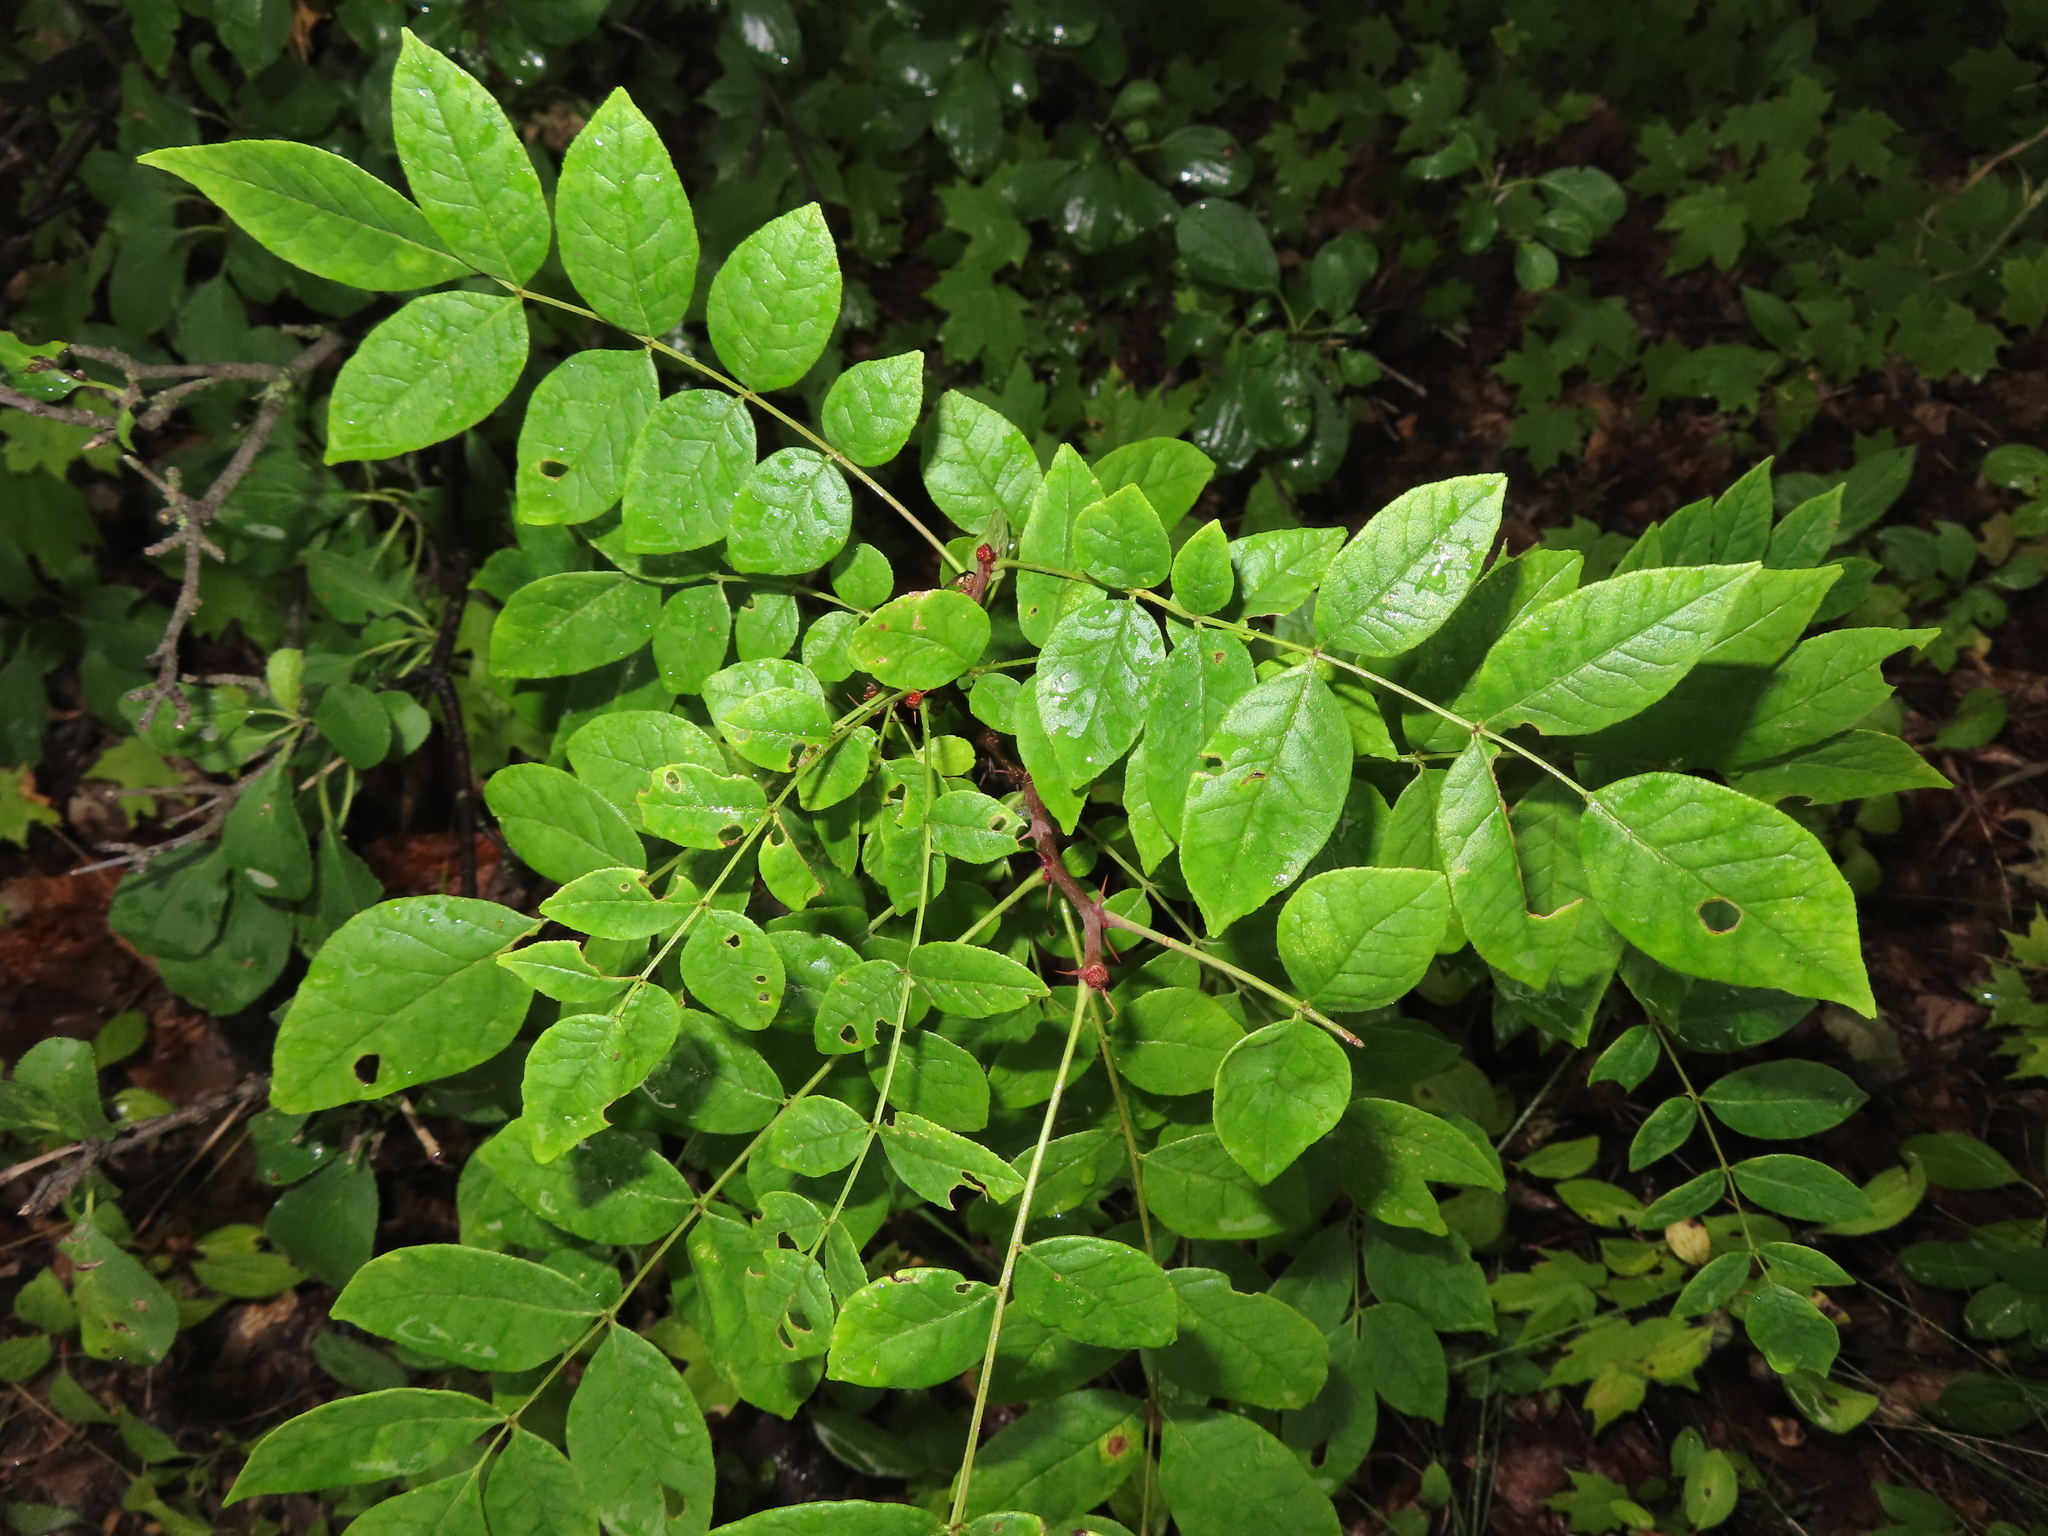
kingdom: Plantae
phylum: Tracheophyta
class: Magnoliopsida
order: Sapindales
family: Rutaceae
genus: Zanthoxylum
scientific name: Zanthoxylum americanum
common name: Northern prickly-ash
